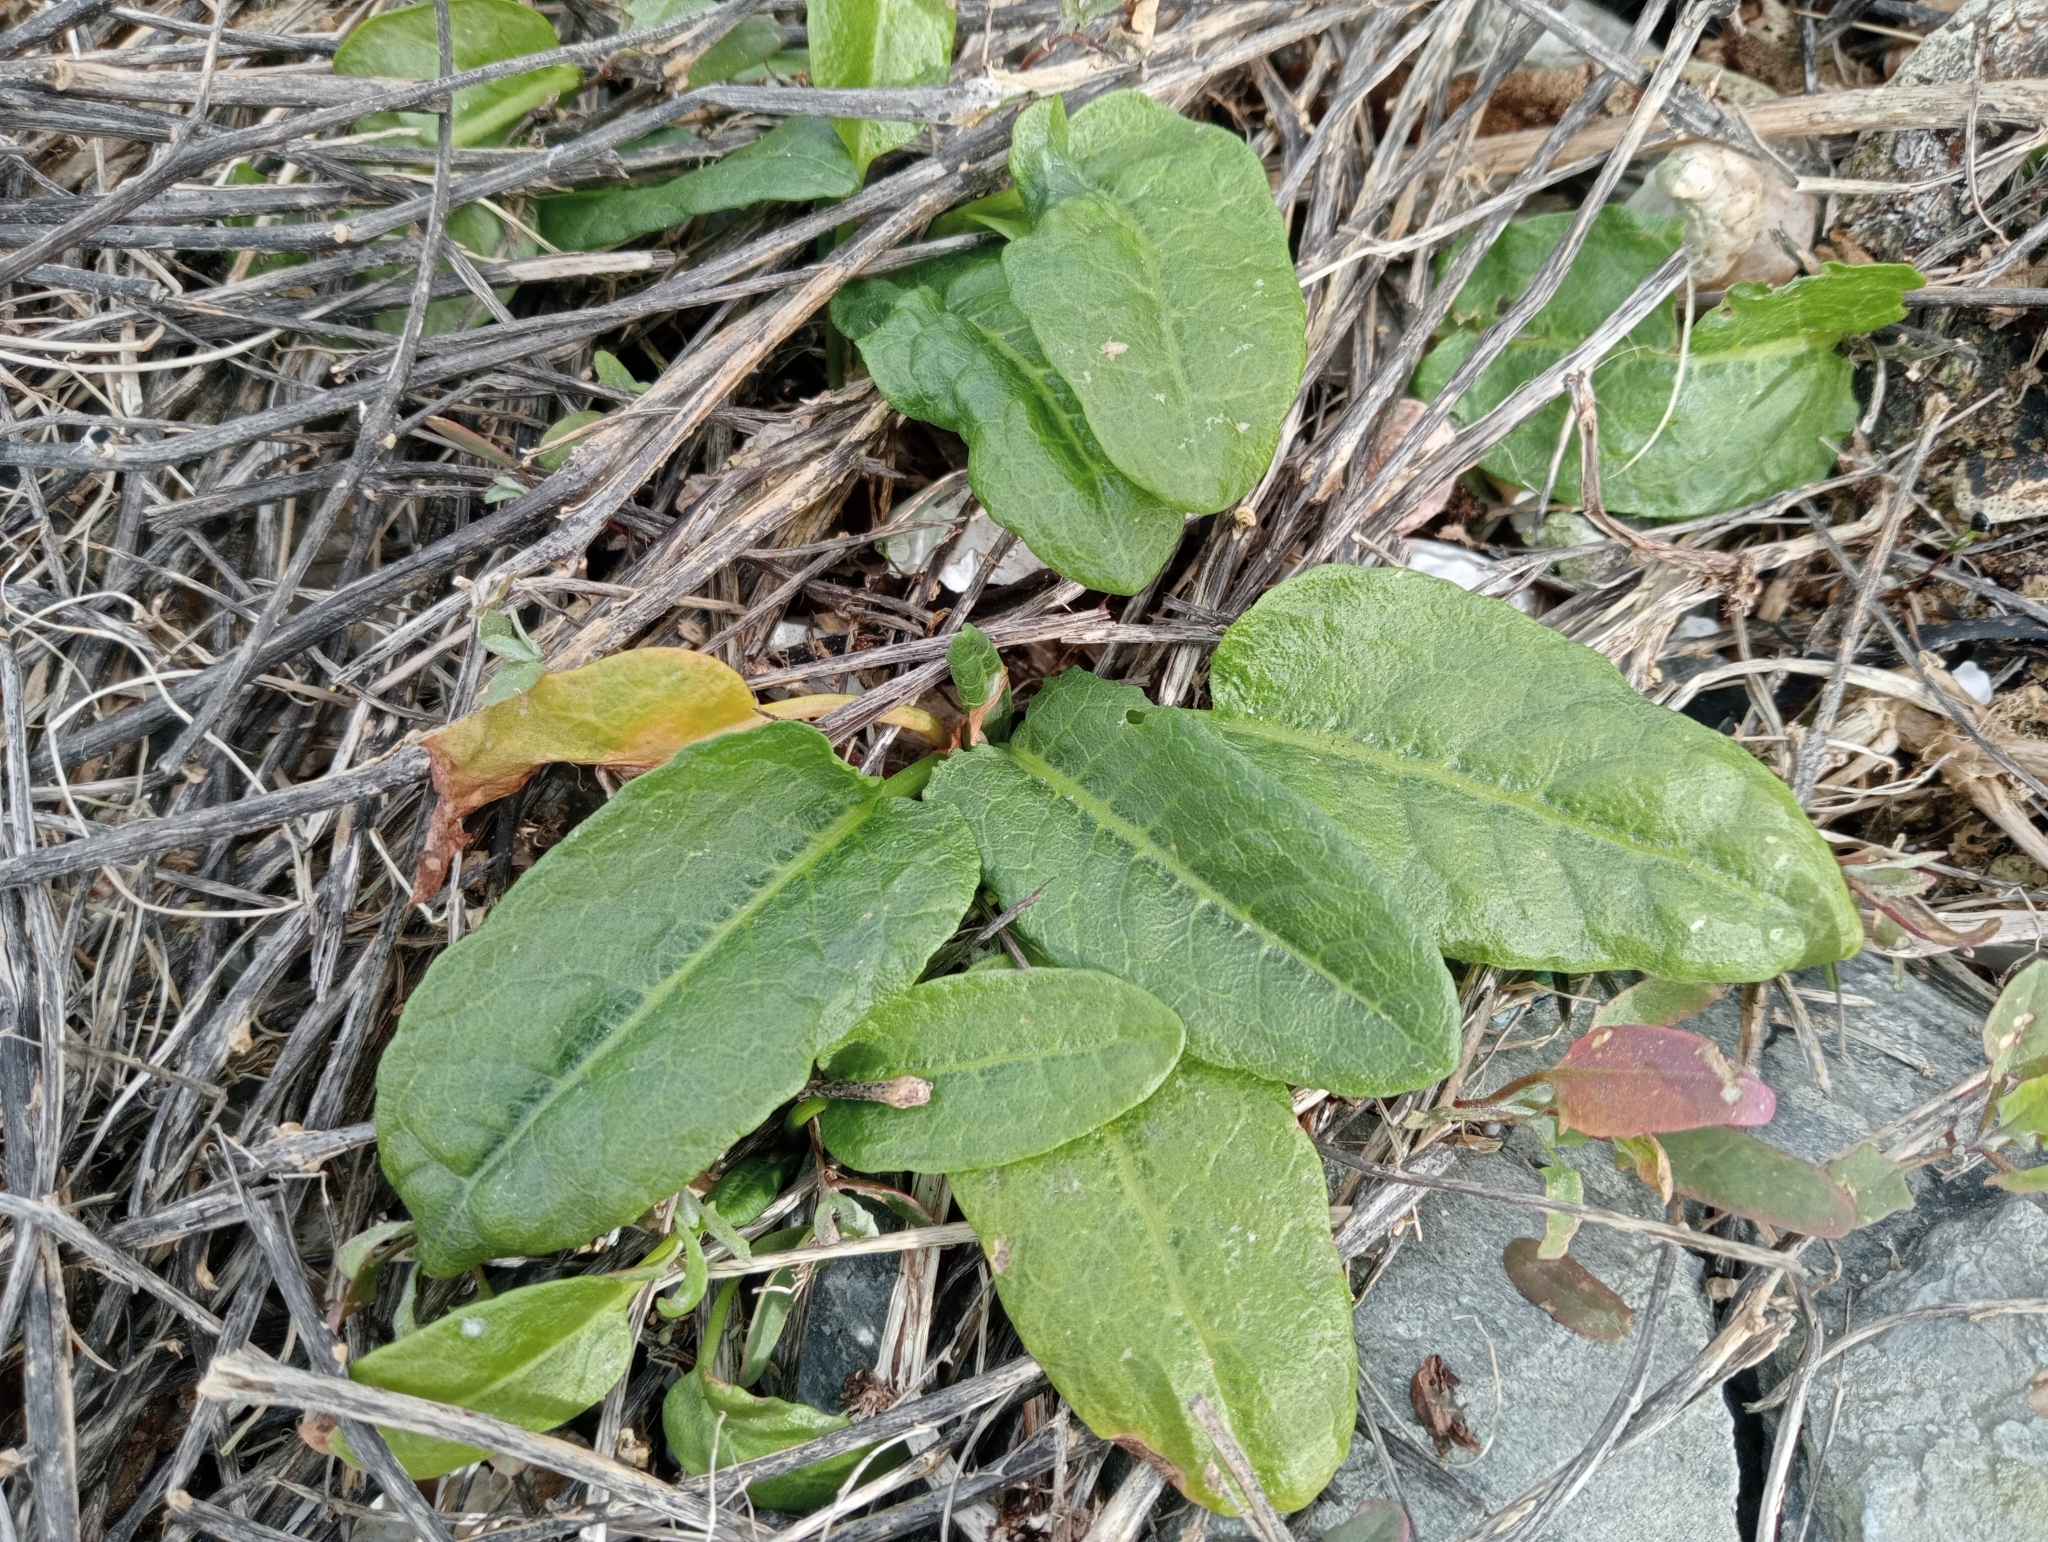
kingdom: Plantae
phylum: Tracheophyta
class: Magnoliopsida
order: Caryophyllales
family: Polygonaceae
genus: Rumex
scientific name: Rumex neglectus
